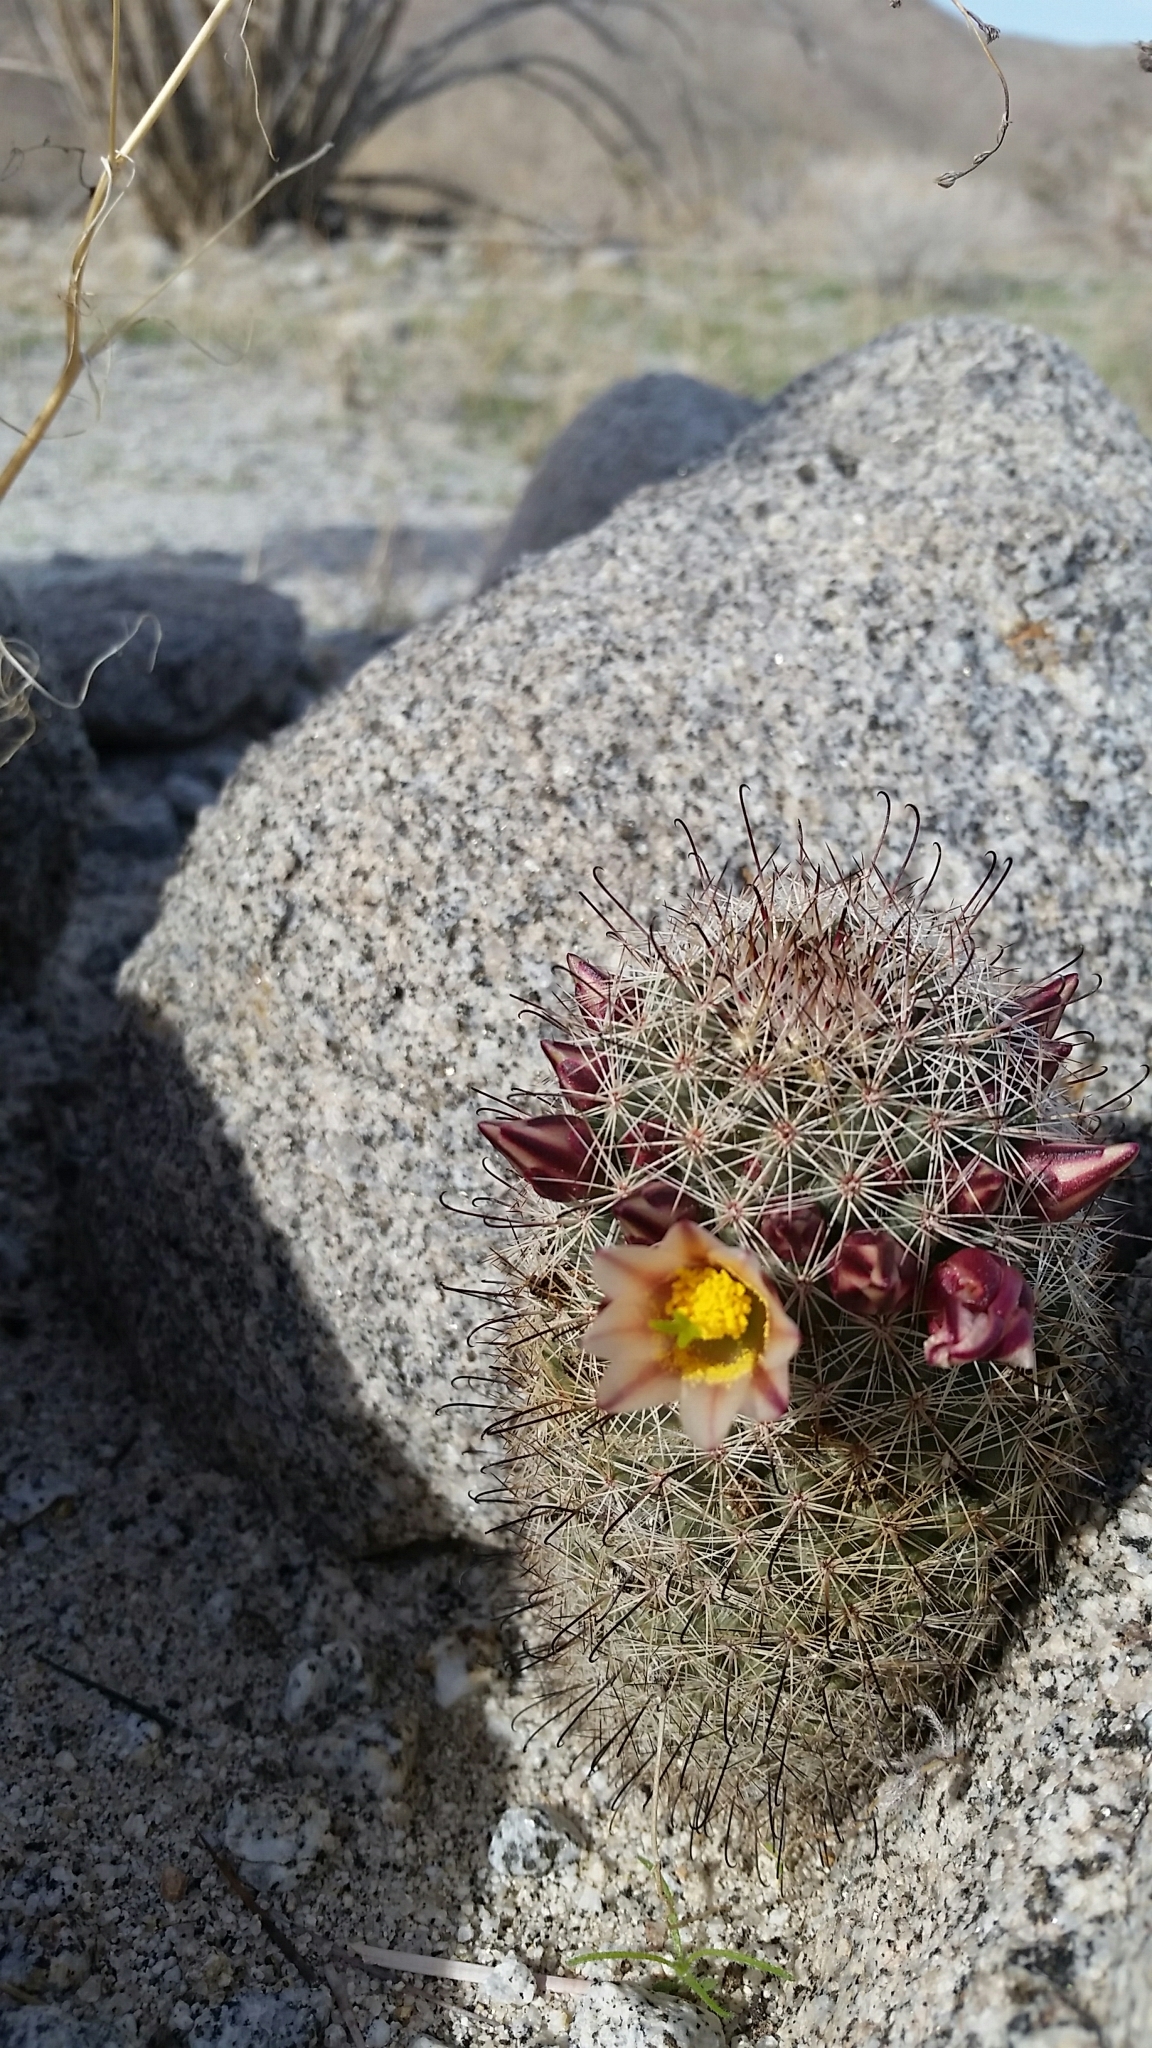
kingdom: Plantae
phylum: Tracheophyta
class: Magnoliopsida
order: Caryophyllales
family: Cactaceae
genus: Cochemiea
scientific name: Cochemiea dioica
